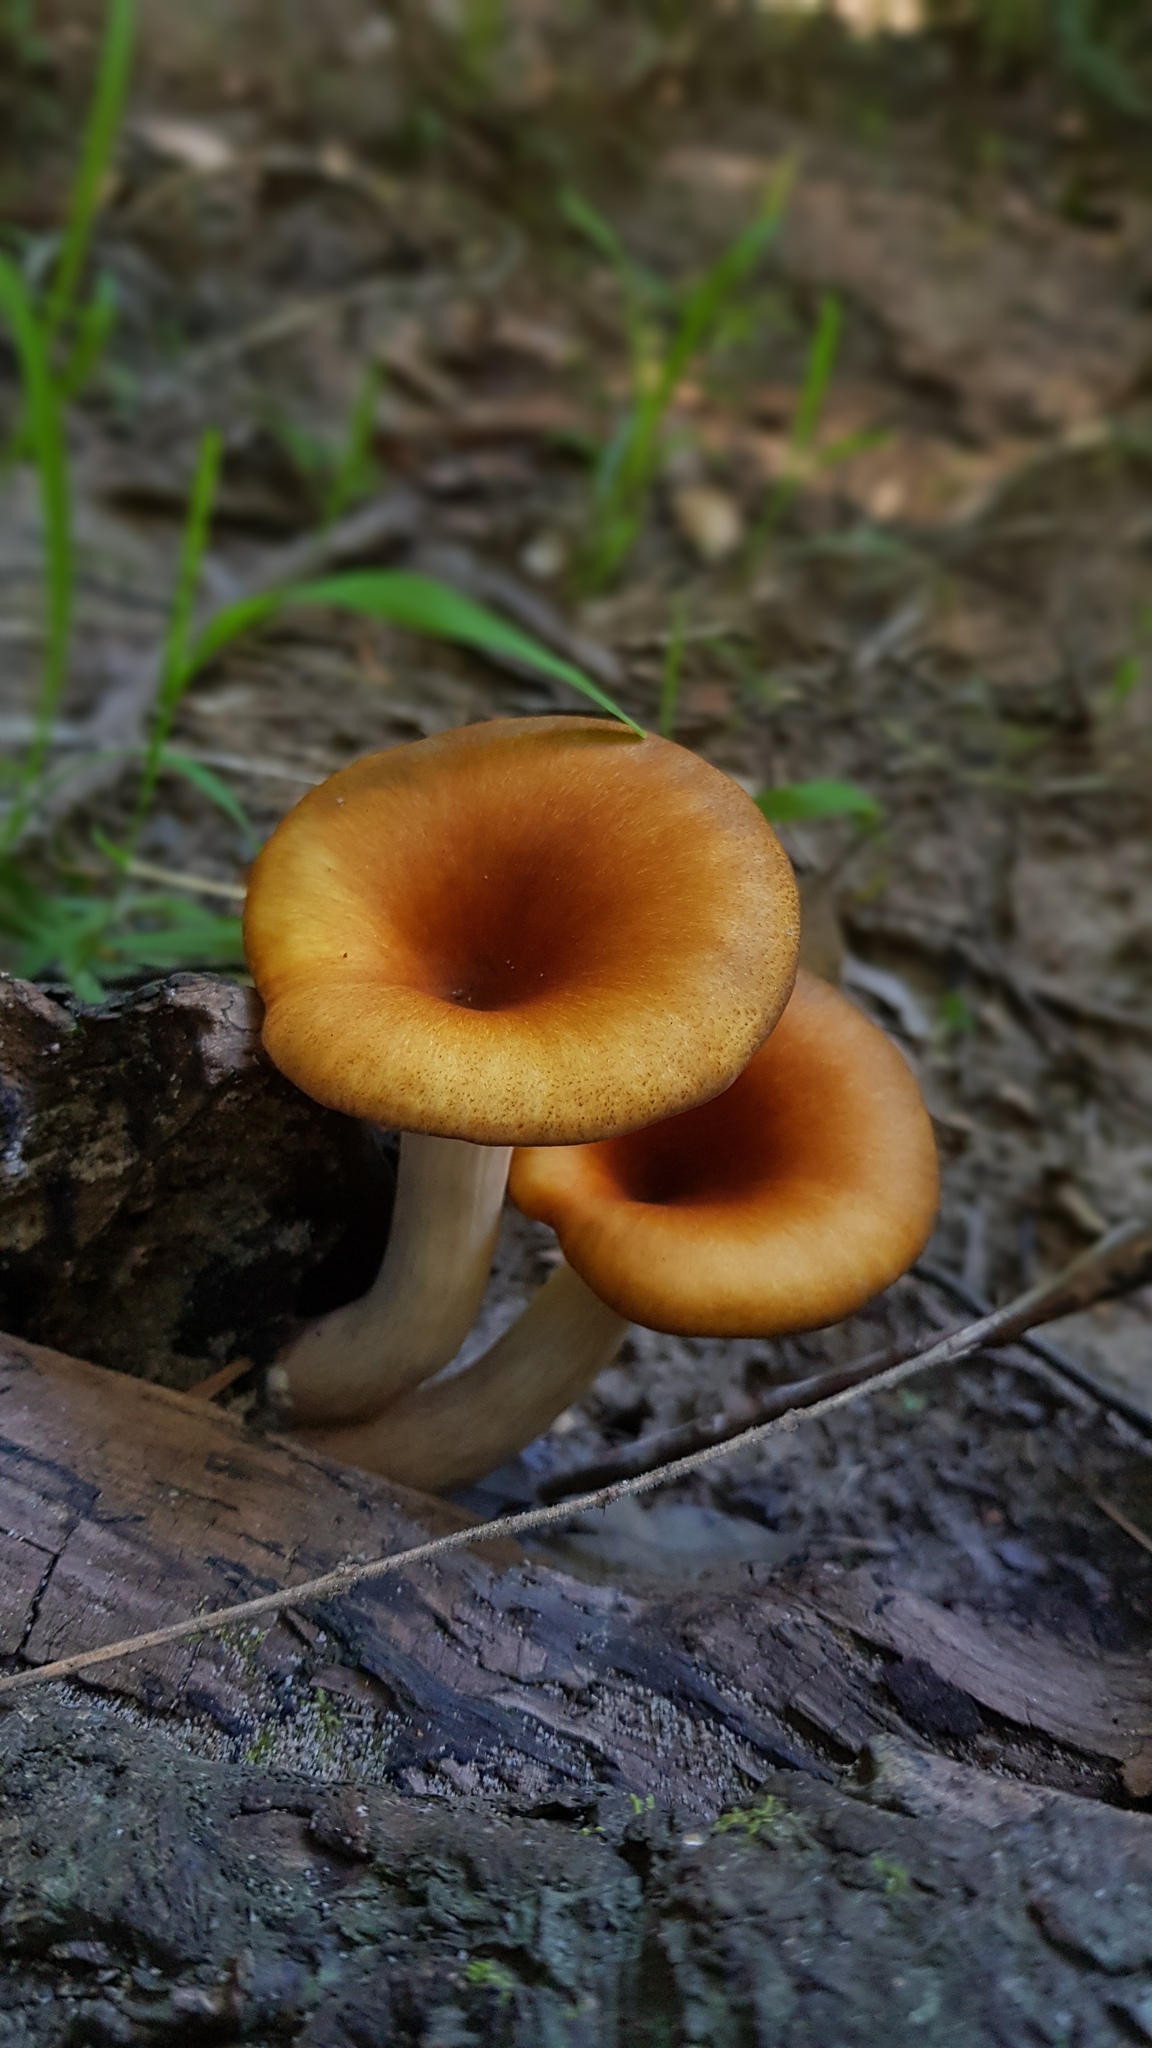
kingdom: Fungi
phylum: Basidiomycota
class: Agaricomycetes
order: Agaricales
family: Omphalotaceae
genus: Omphalotus
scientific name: Omphalotus nidiformis
